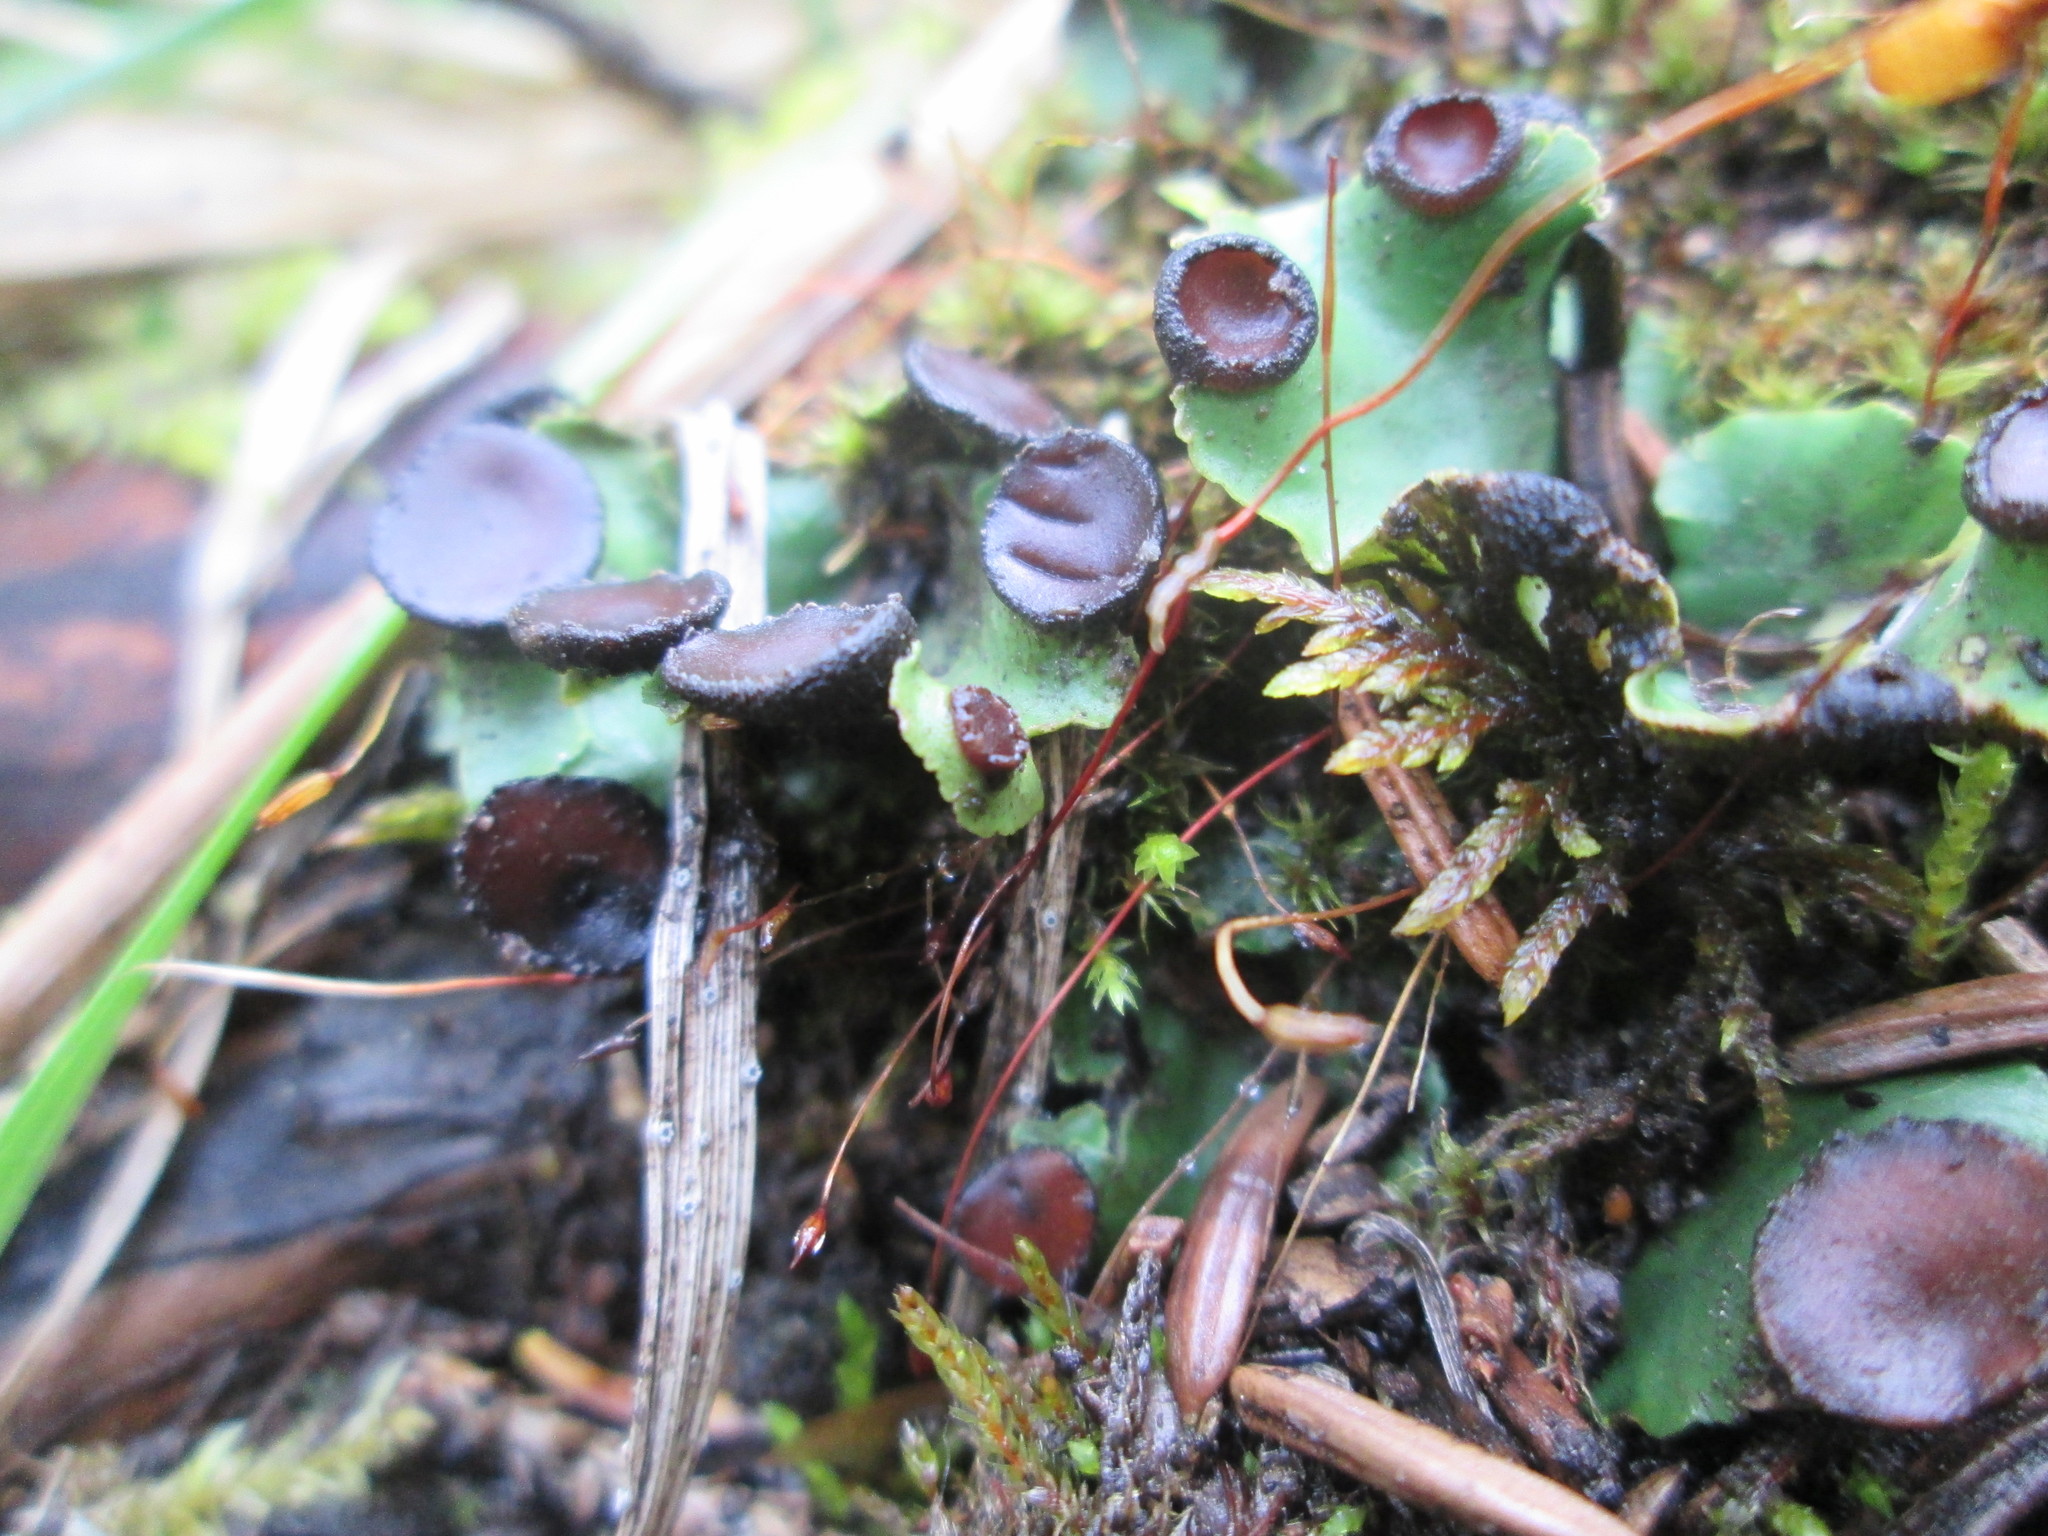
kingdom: Fungi
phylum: Ascomycota
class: Lecanoromycetes
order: Peltigerales
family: Peltigeraceae
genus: Peltigera
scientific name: Peltigera venosa
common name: Pixie gowns lichen
